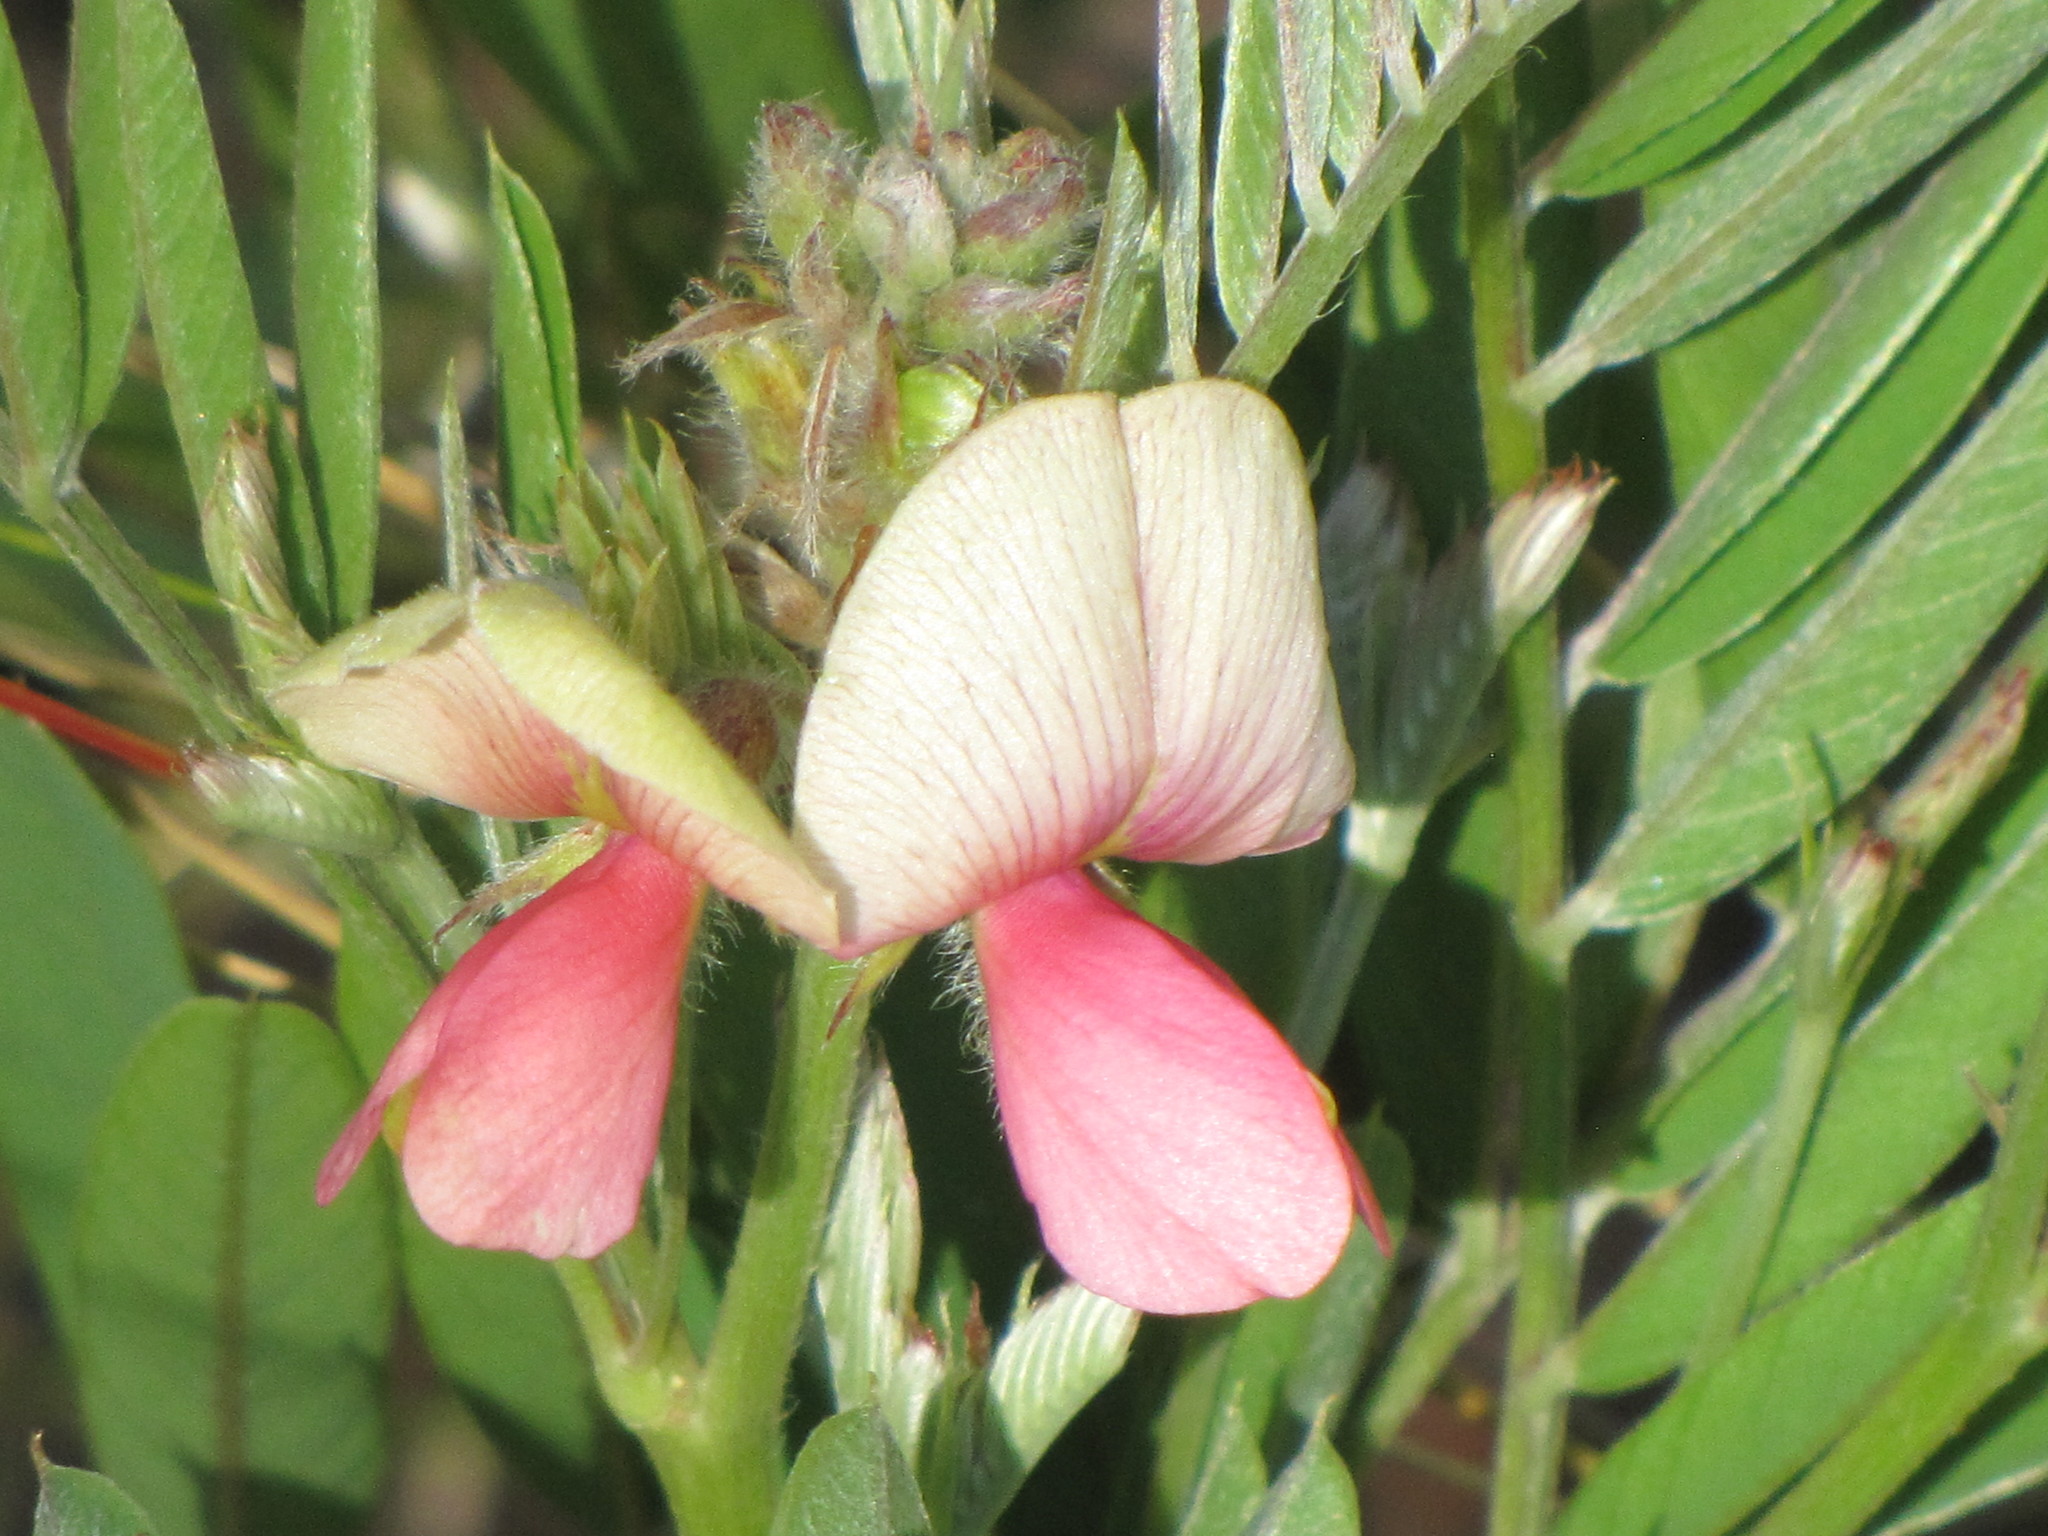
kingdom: Plantae
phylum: Tracheophyta
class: Magnoliopsida
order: Fabales
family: Fabaceae
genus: Tephrosia
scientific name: Tephrosia virginiana
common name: Rabbit-pea
